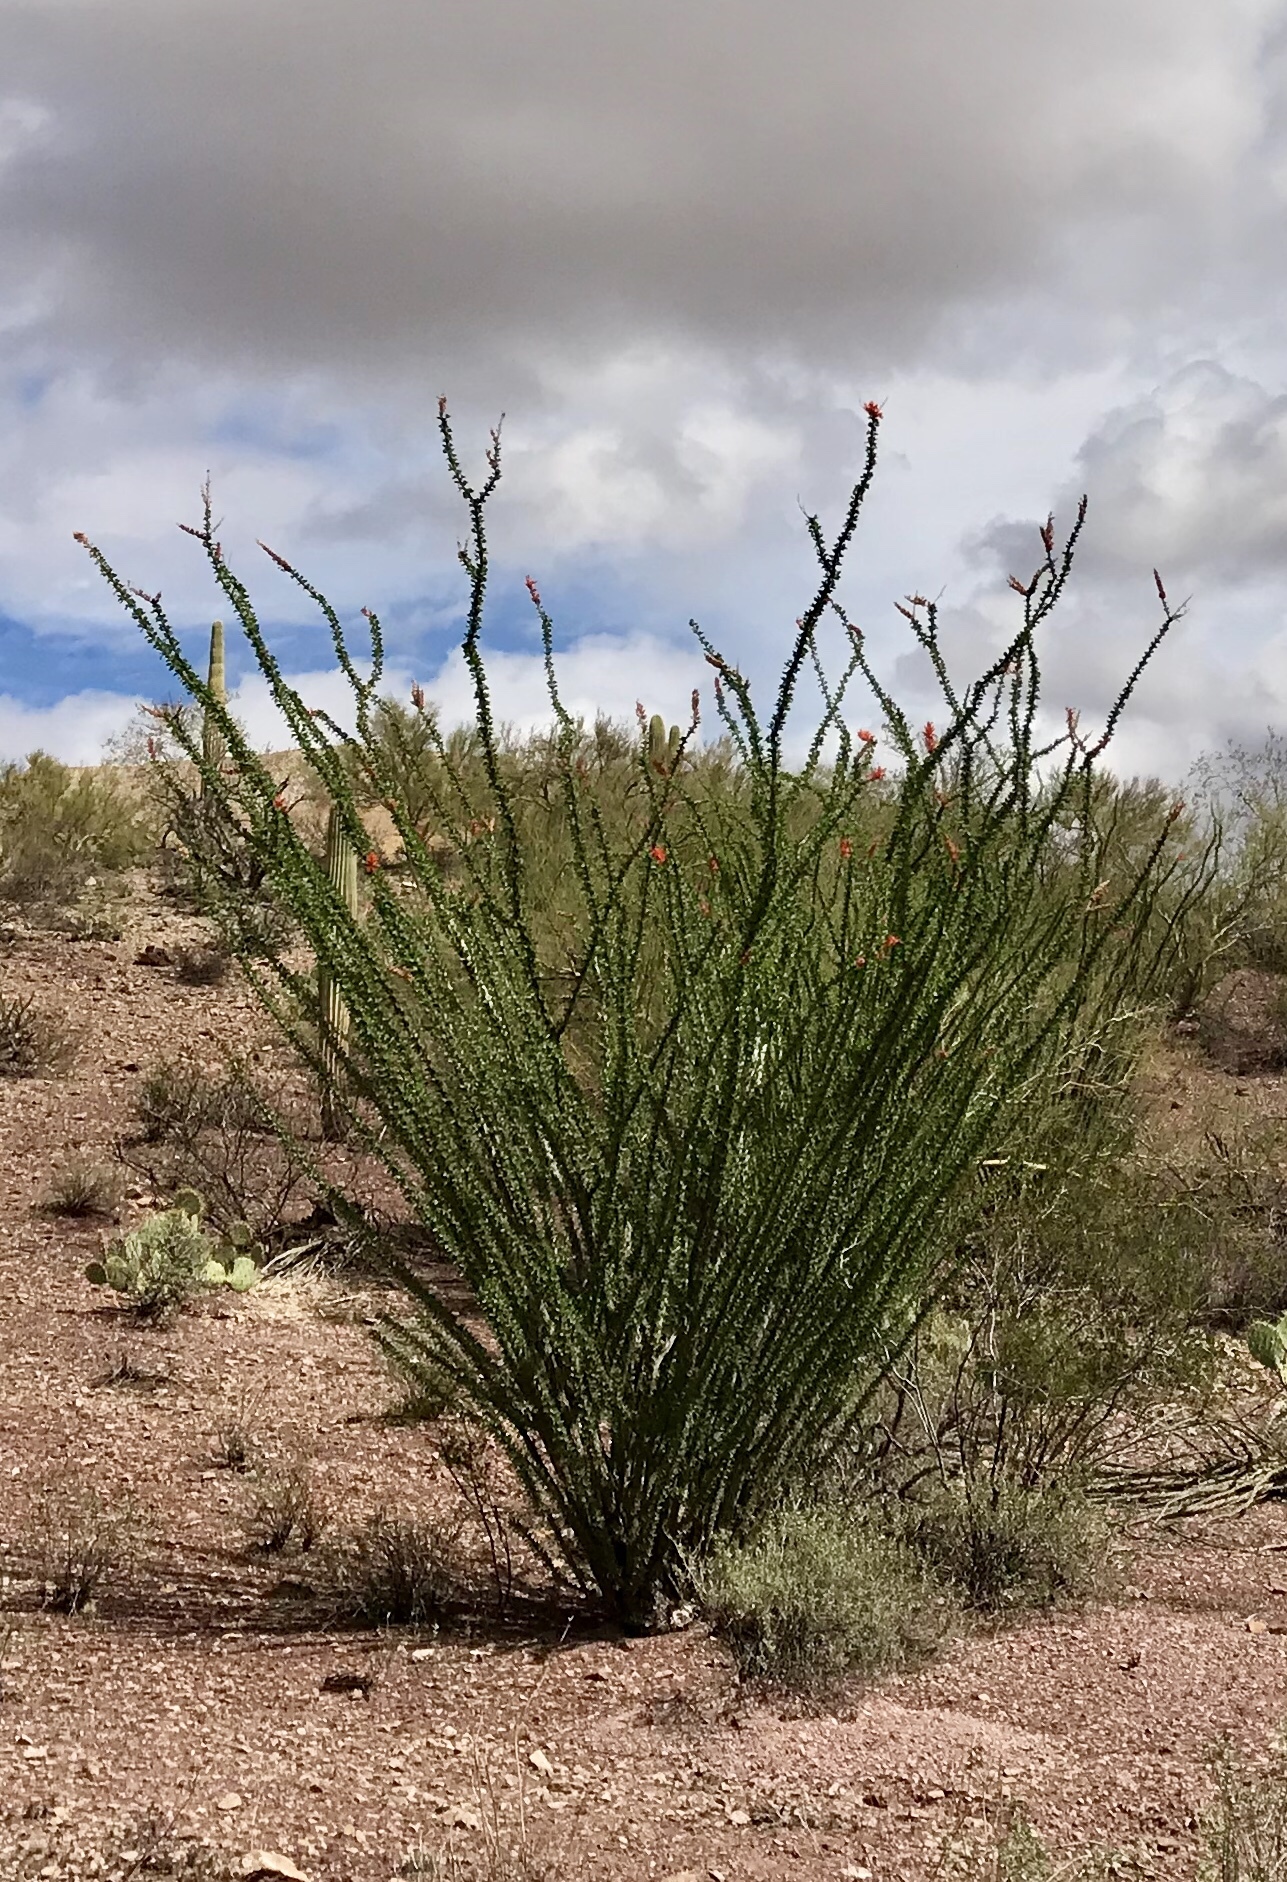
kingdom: Plantae
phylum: Tracheophyta
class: Magnoliopsida
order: Ericales
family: Fouquieriaceae
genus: Fouquieria
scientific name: Fouquieria splendens
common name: Vine-cactus
